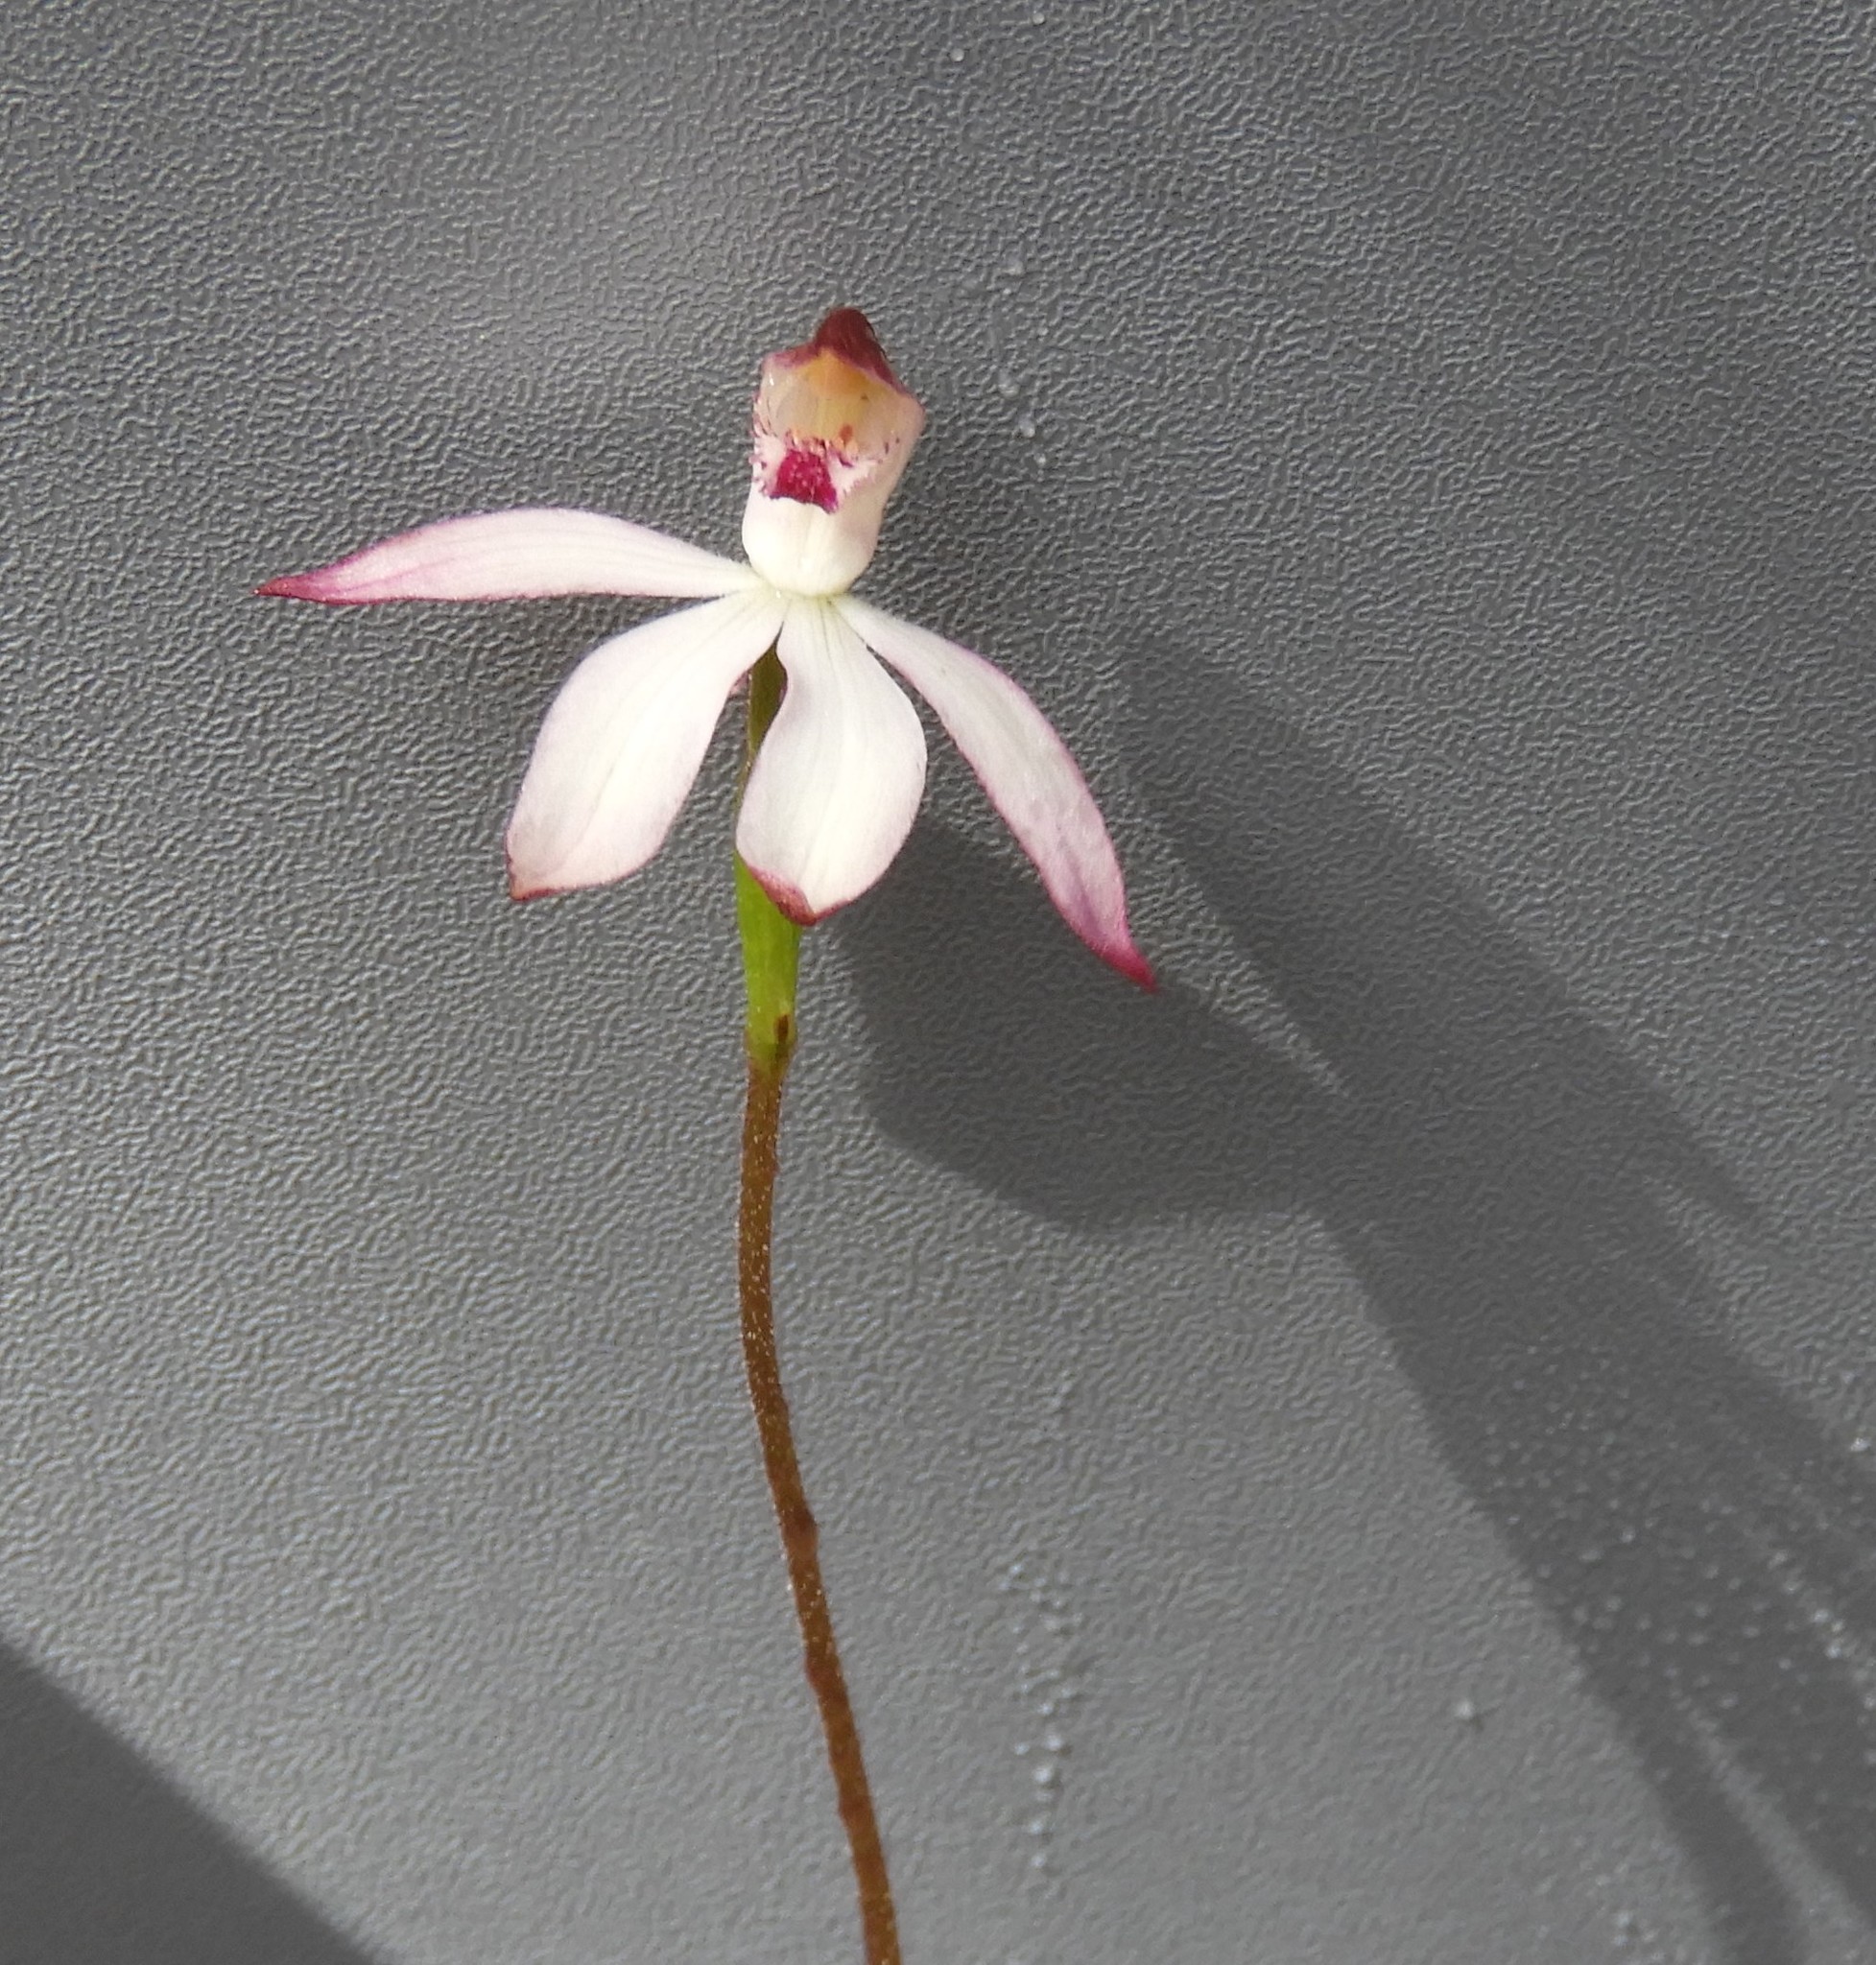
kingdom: Plantae
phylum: Tracheophyta
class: Liliopsida
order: Asparagales
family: Orchidaceae
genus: Caladenia
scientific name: Caladenia cucullata
